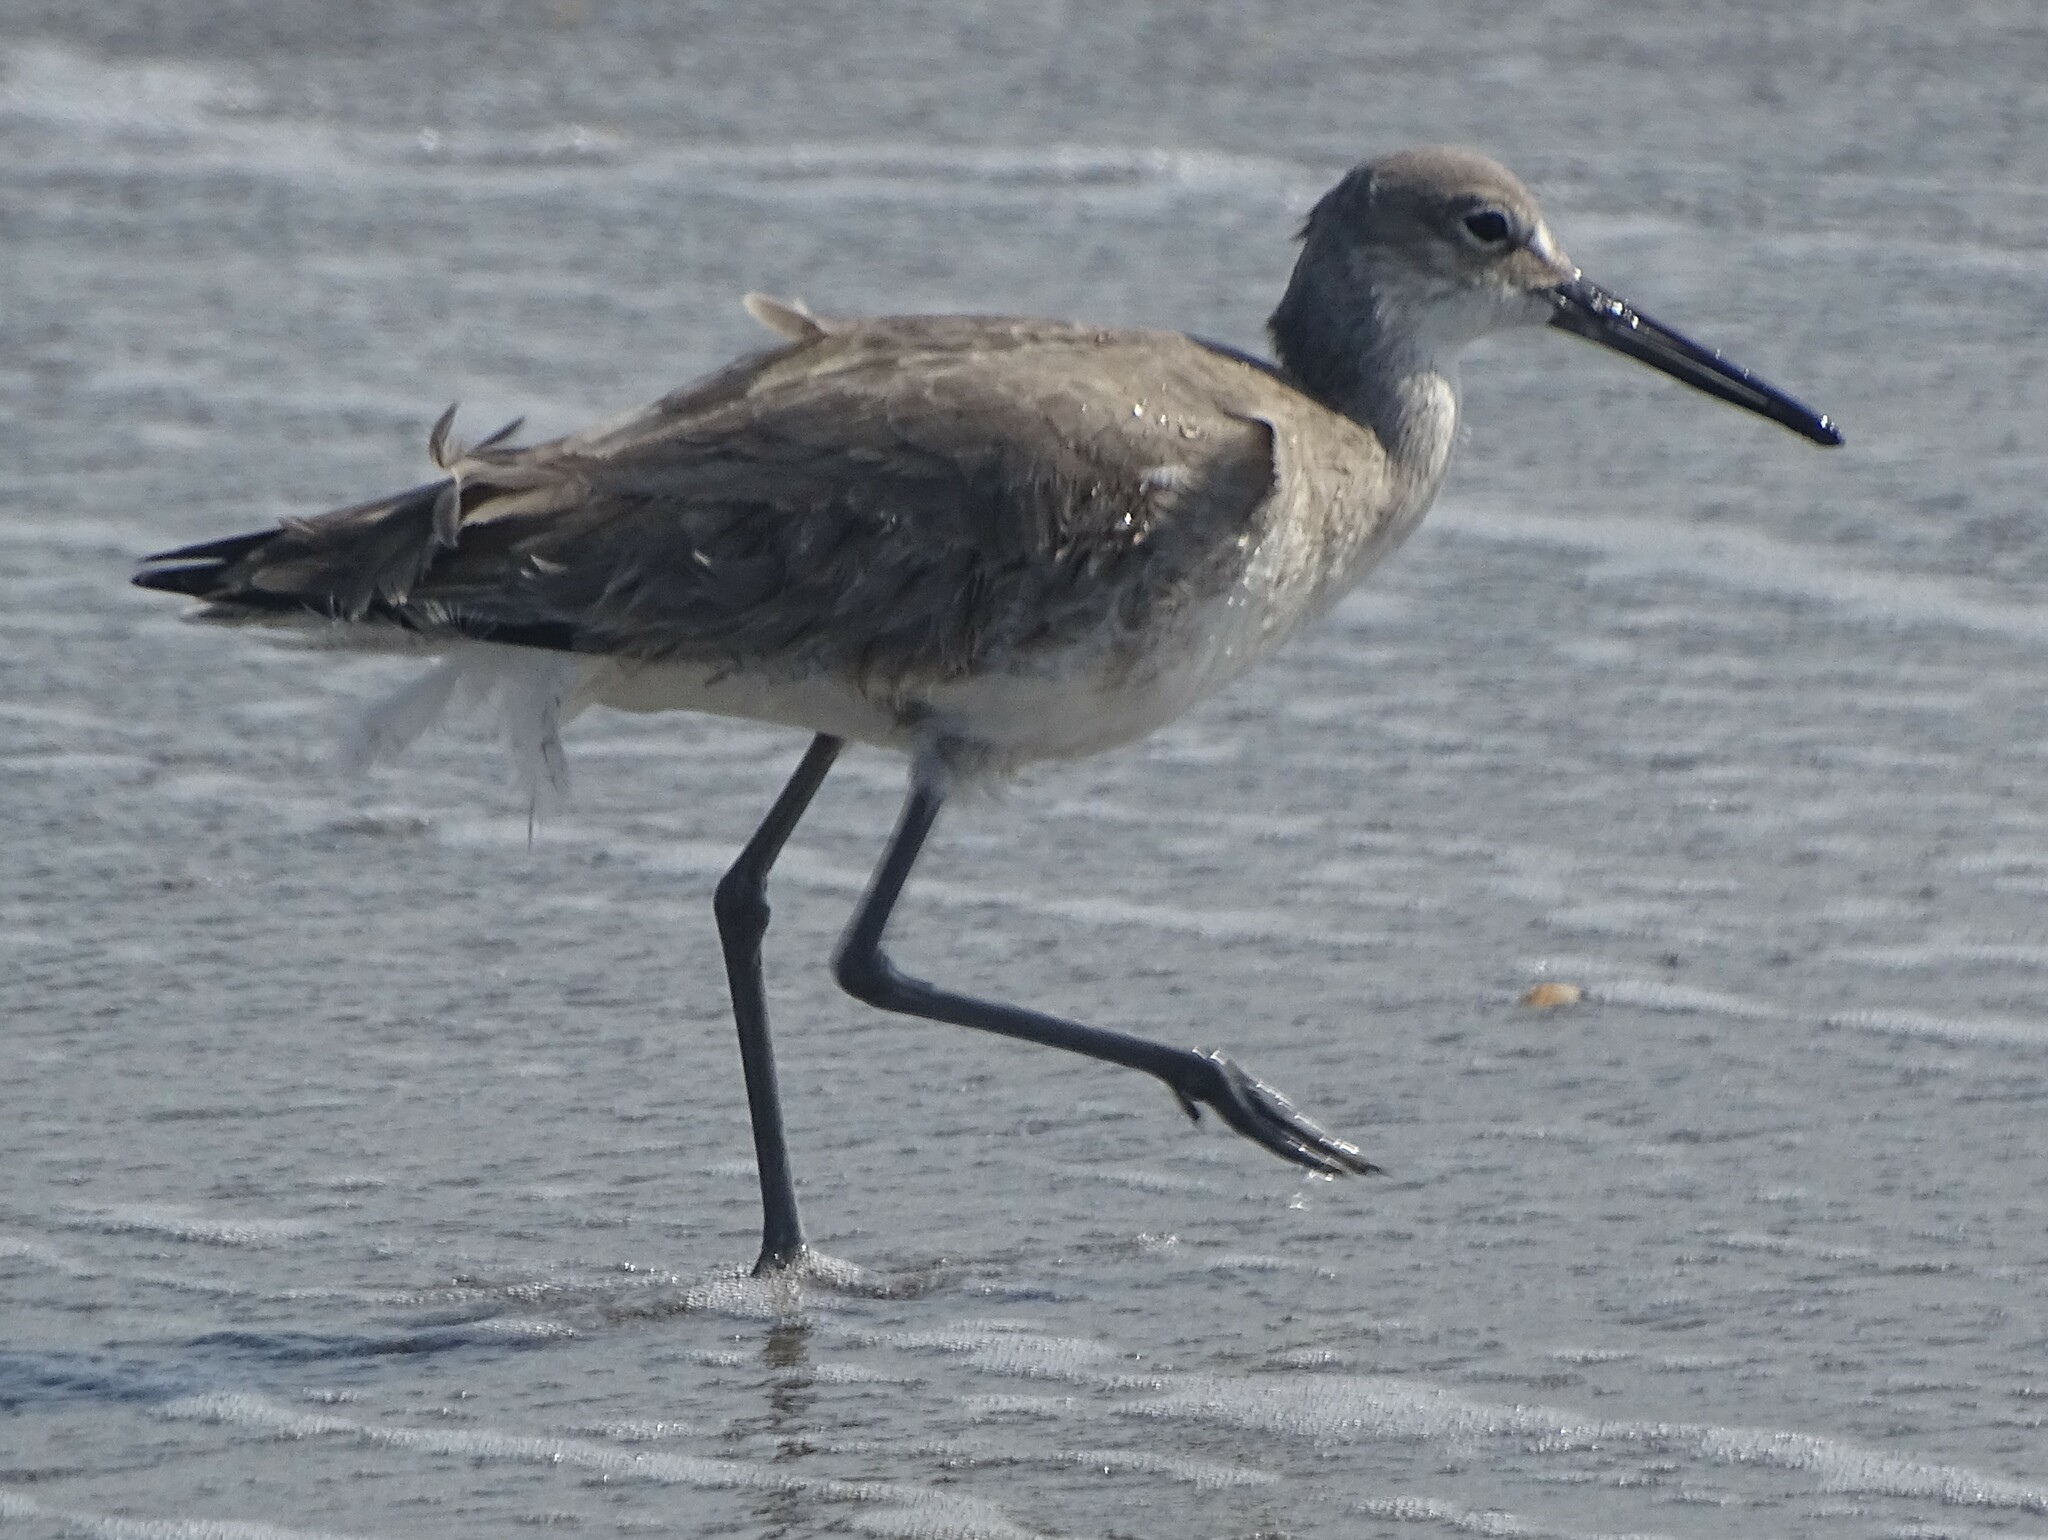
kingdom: Animalia
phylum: Chordata
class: Aves
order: Charadriiformes
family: Scolopacidae
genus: Tringa
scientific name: Tringa semipalmata
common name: Willet
